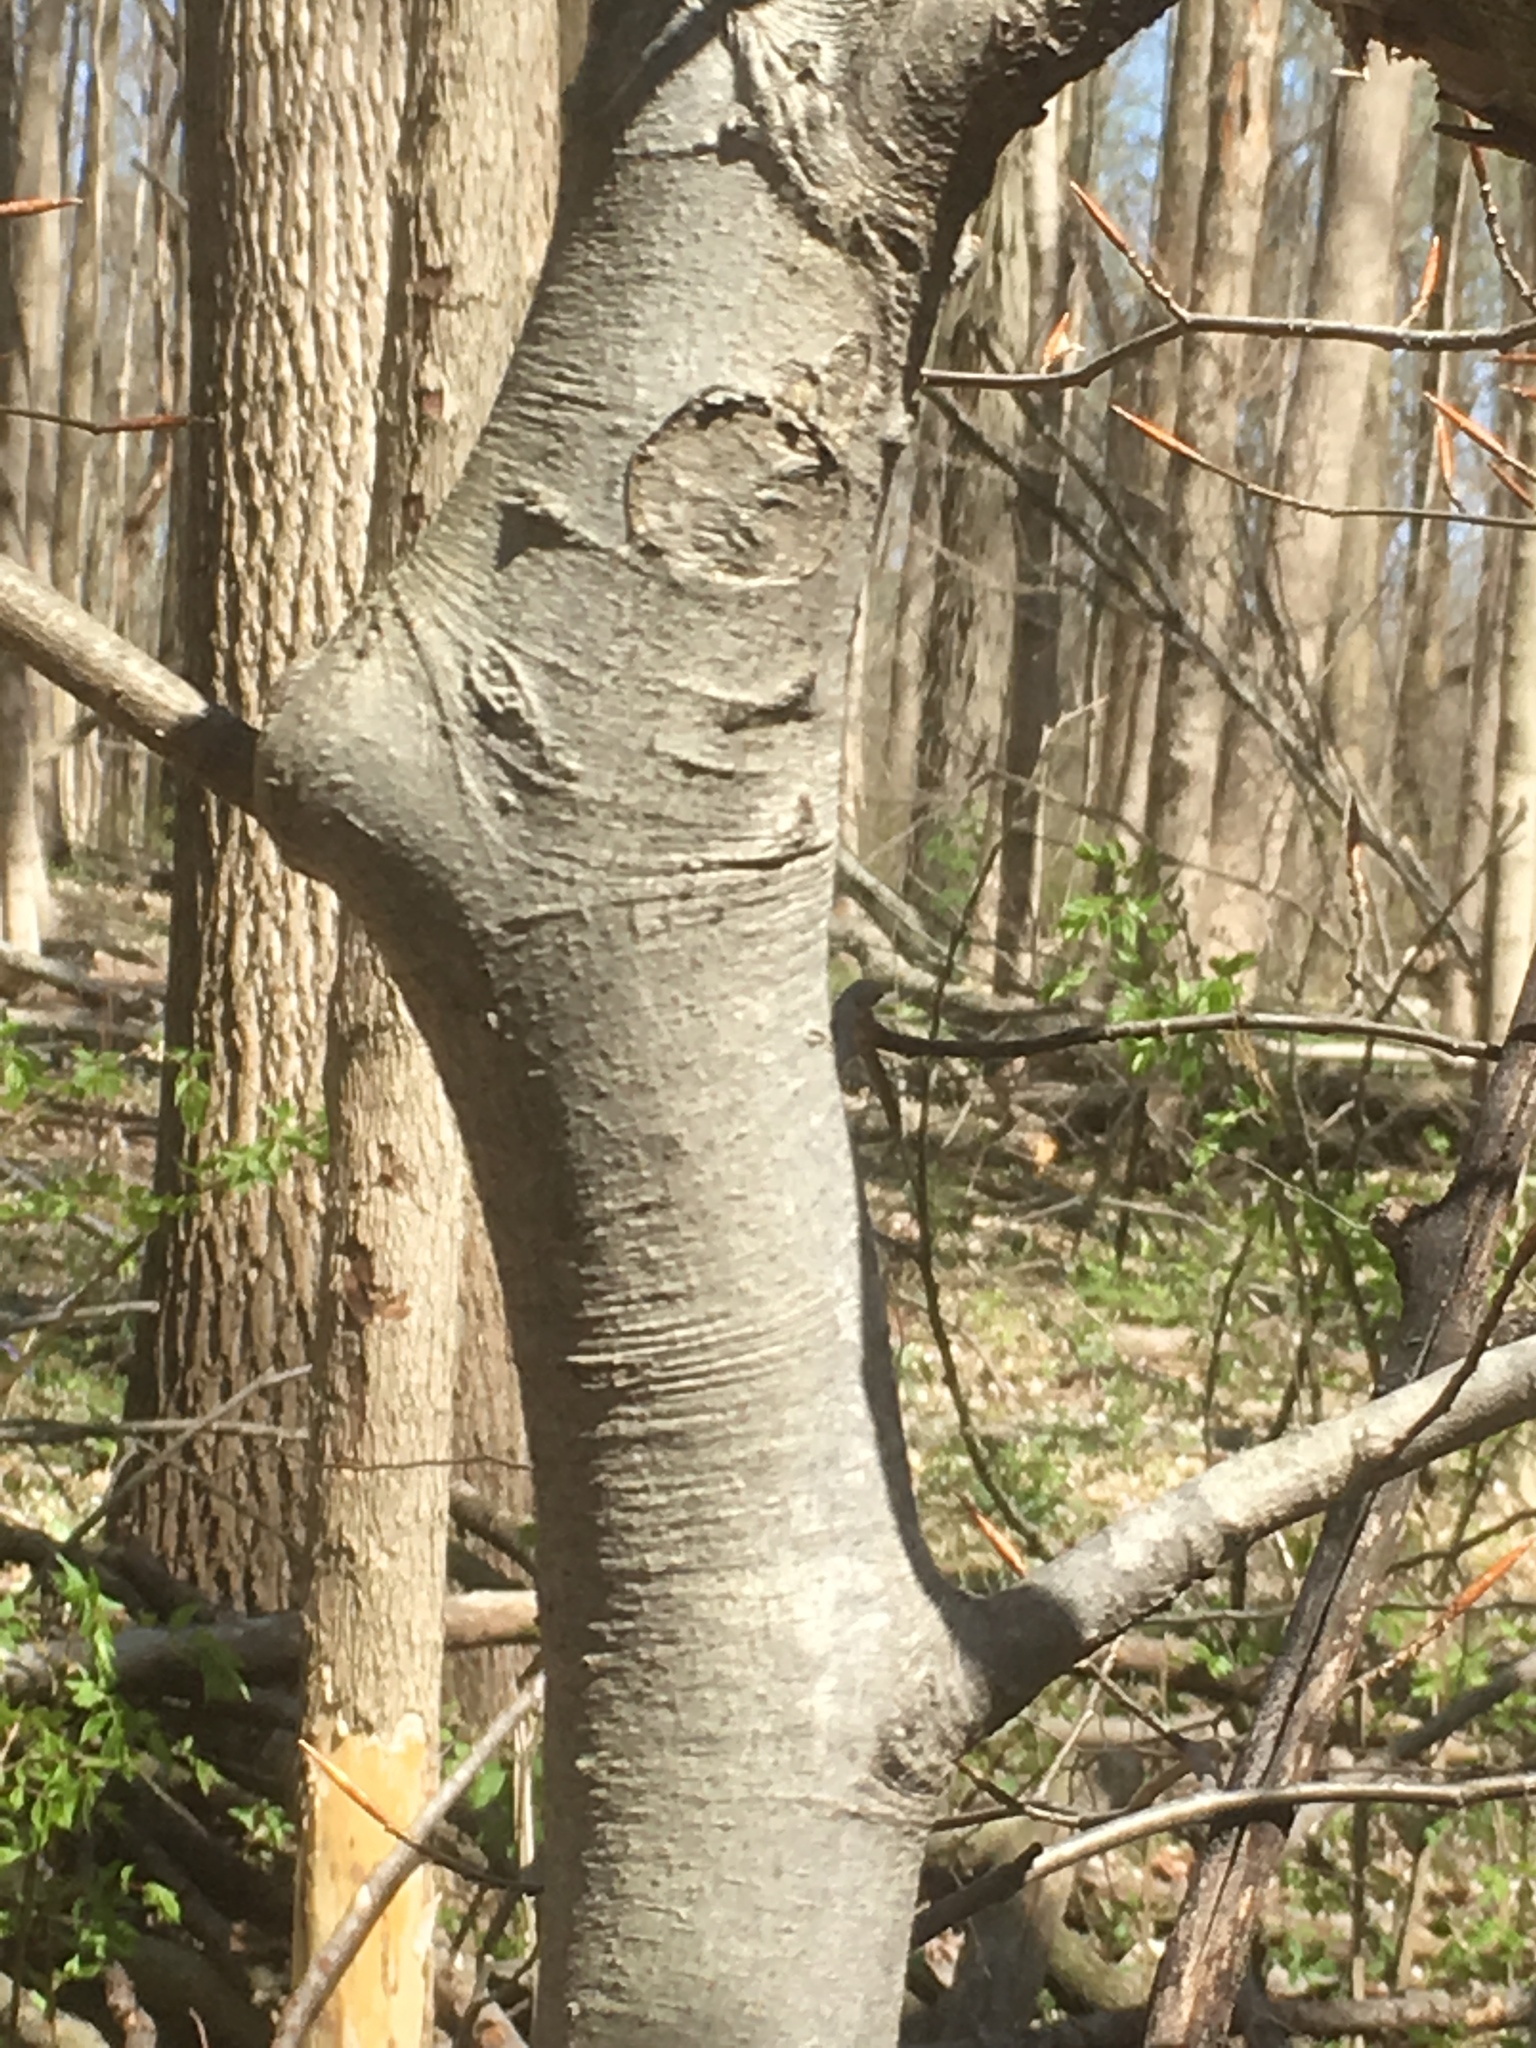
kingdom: Plantae
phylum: Tracheophyta
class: Magnoliopsida
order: Fagales
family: Fagaceae
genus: Fagus
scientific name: Fagus grandifolia
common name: American beech
